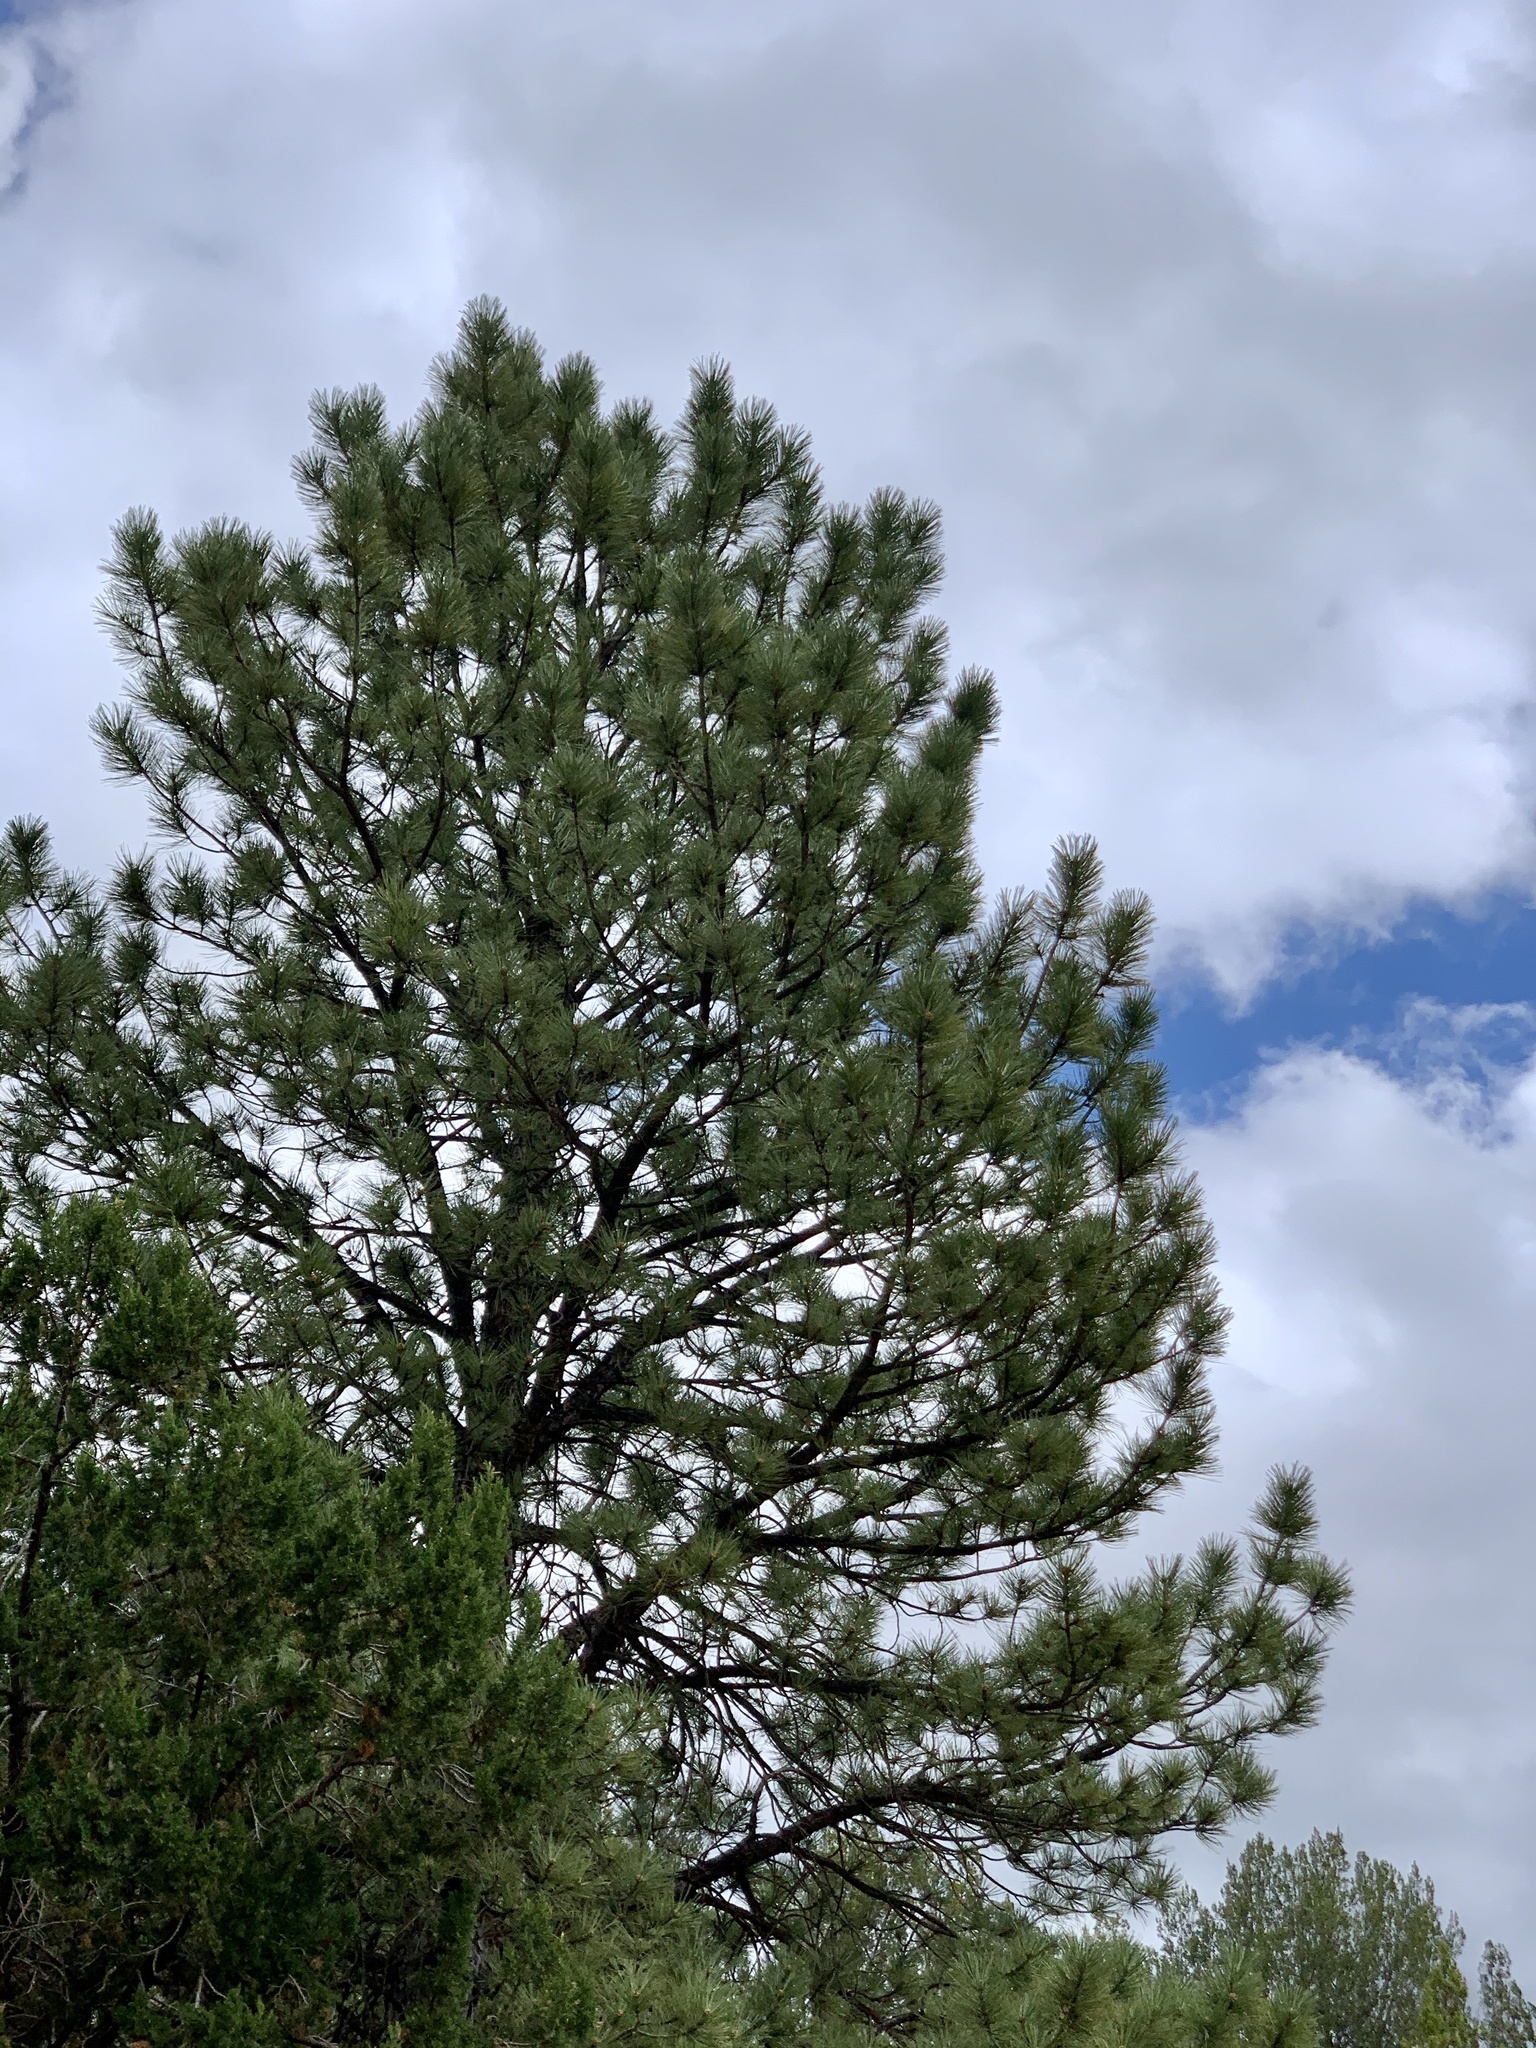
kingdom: Plantae
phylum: Tracheophyta
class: Pinopsida
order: Pinales
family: Pinaceae
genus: Pinus
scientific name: Pinus ponderosa
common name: Western yellow-pine
